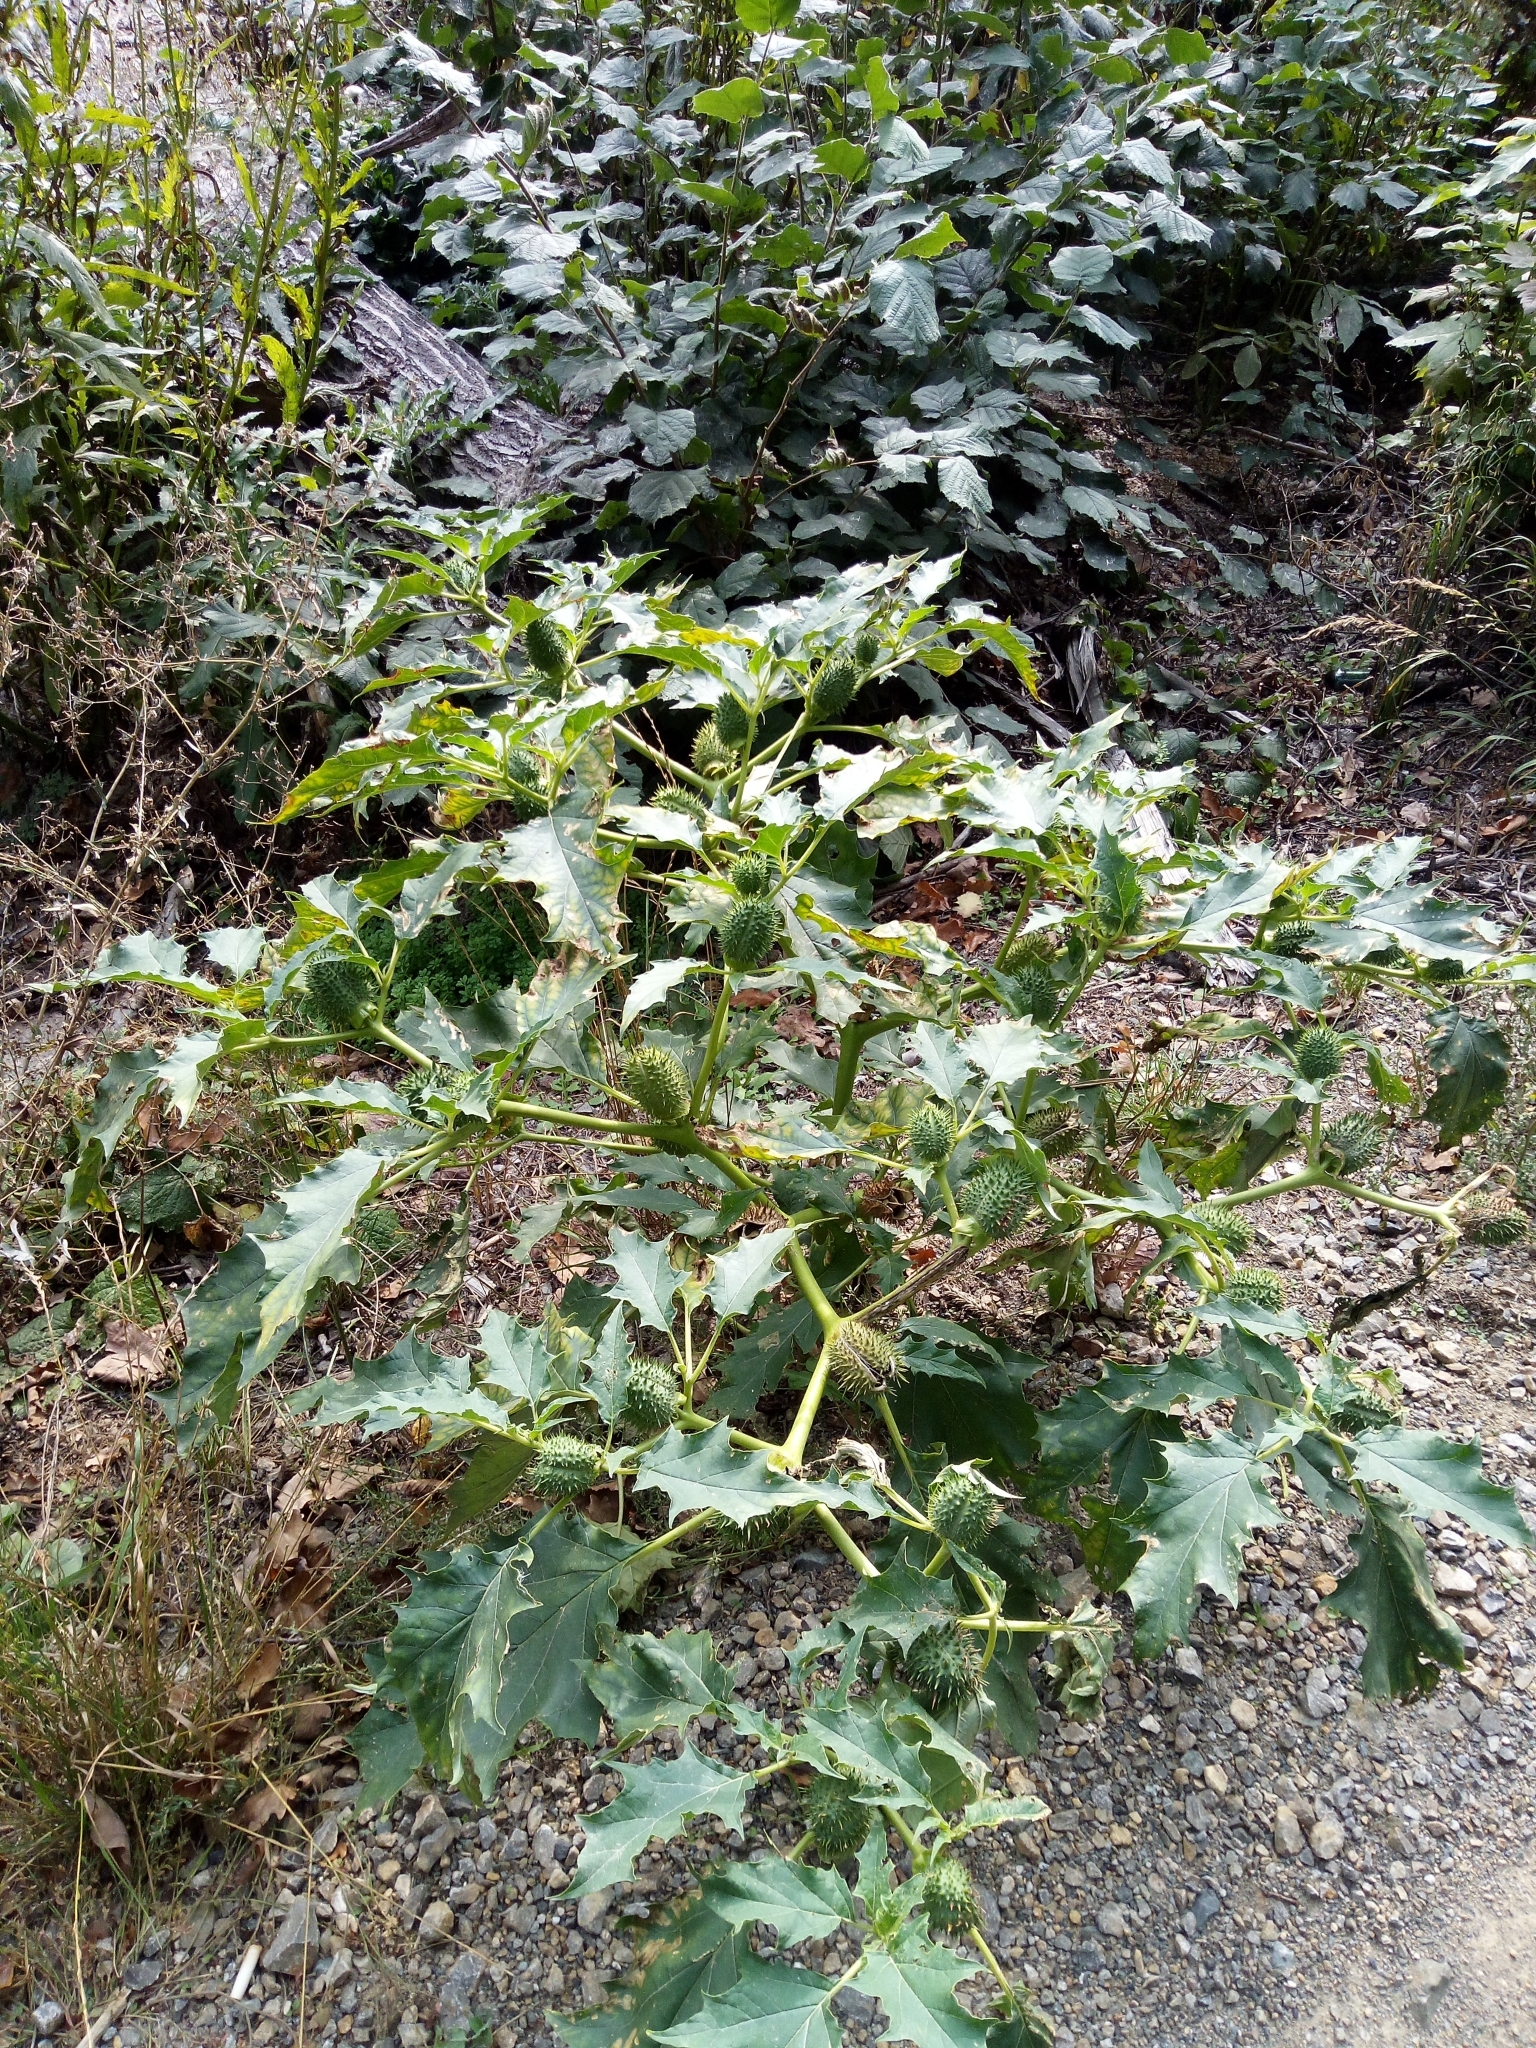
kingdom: Plantae
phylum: Tracheophyta
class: Magnoliopsida
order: Solanales
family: Solanaceae
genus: Datura
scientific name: Datura stramonium
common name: Thorn-apple
